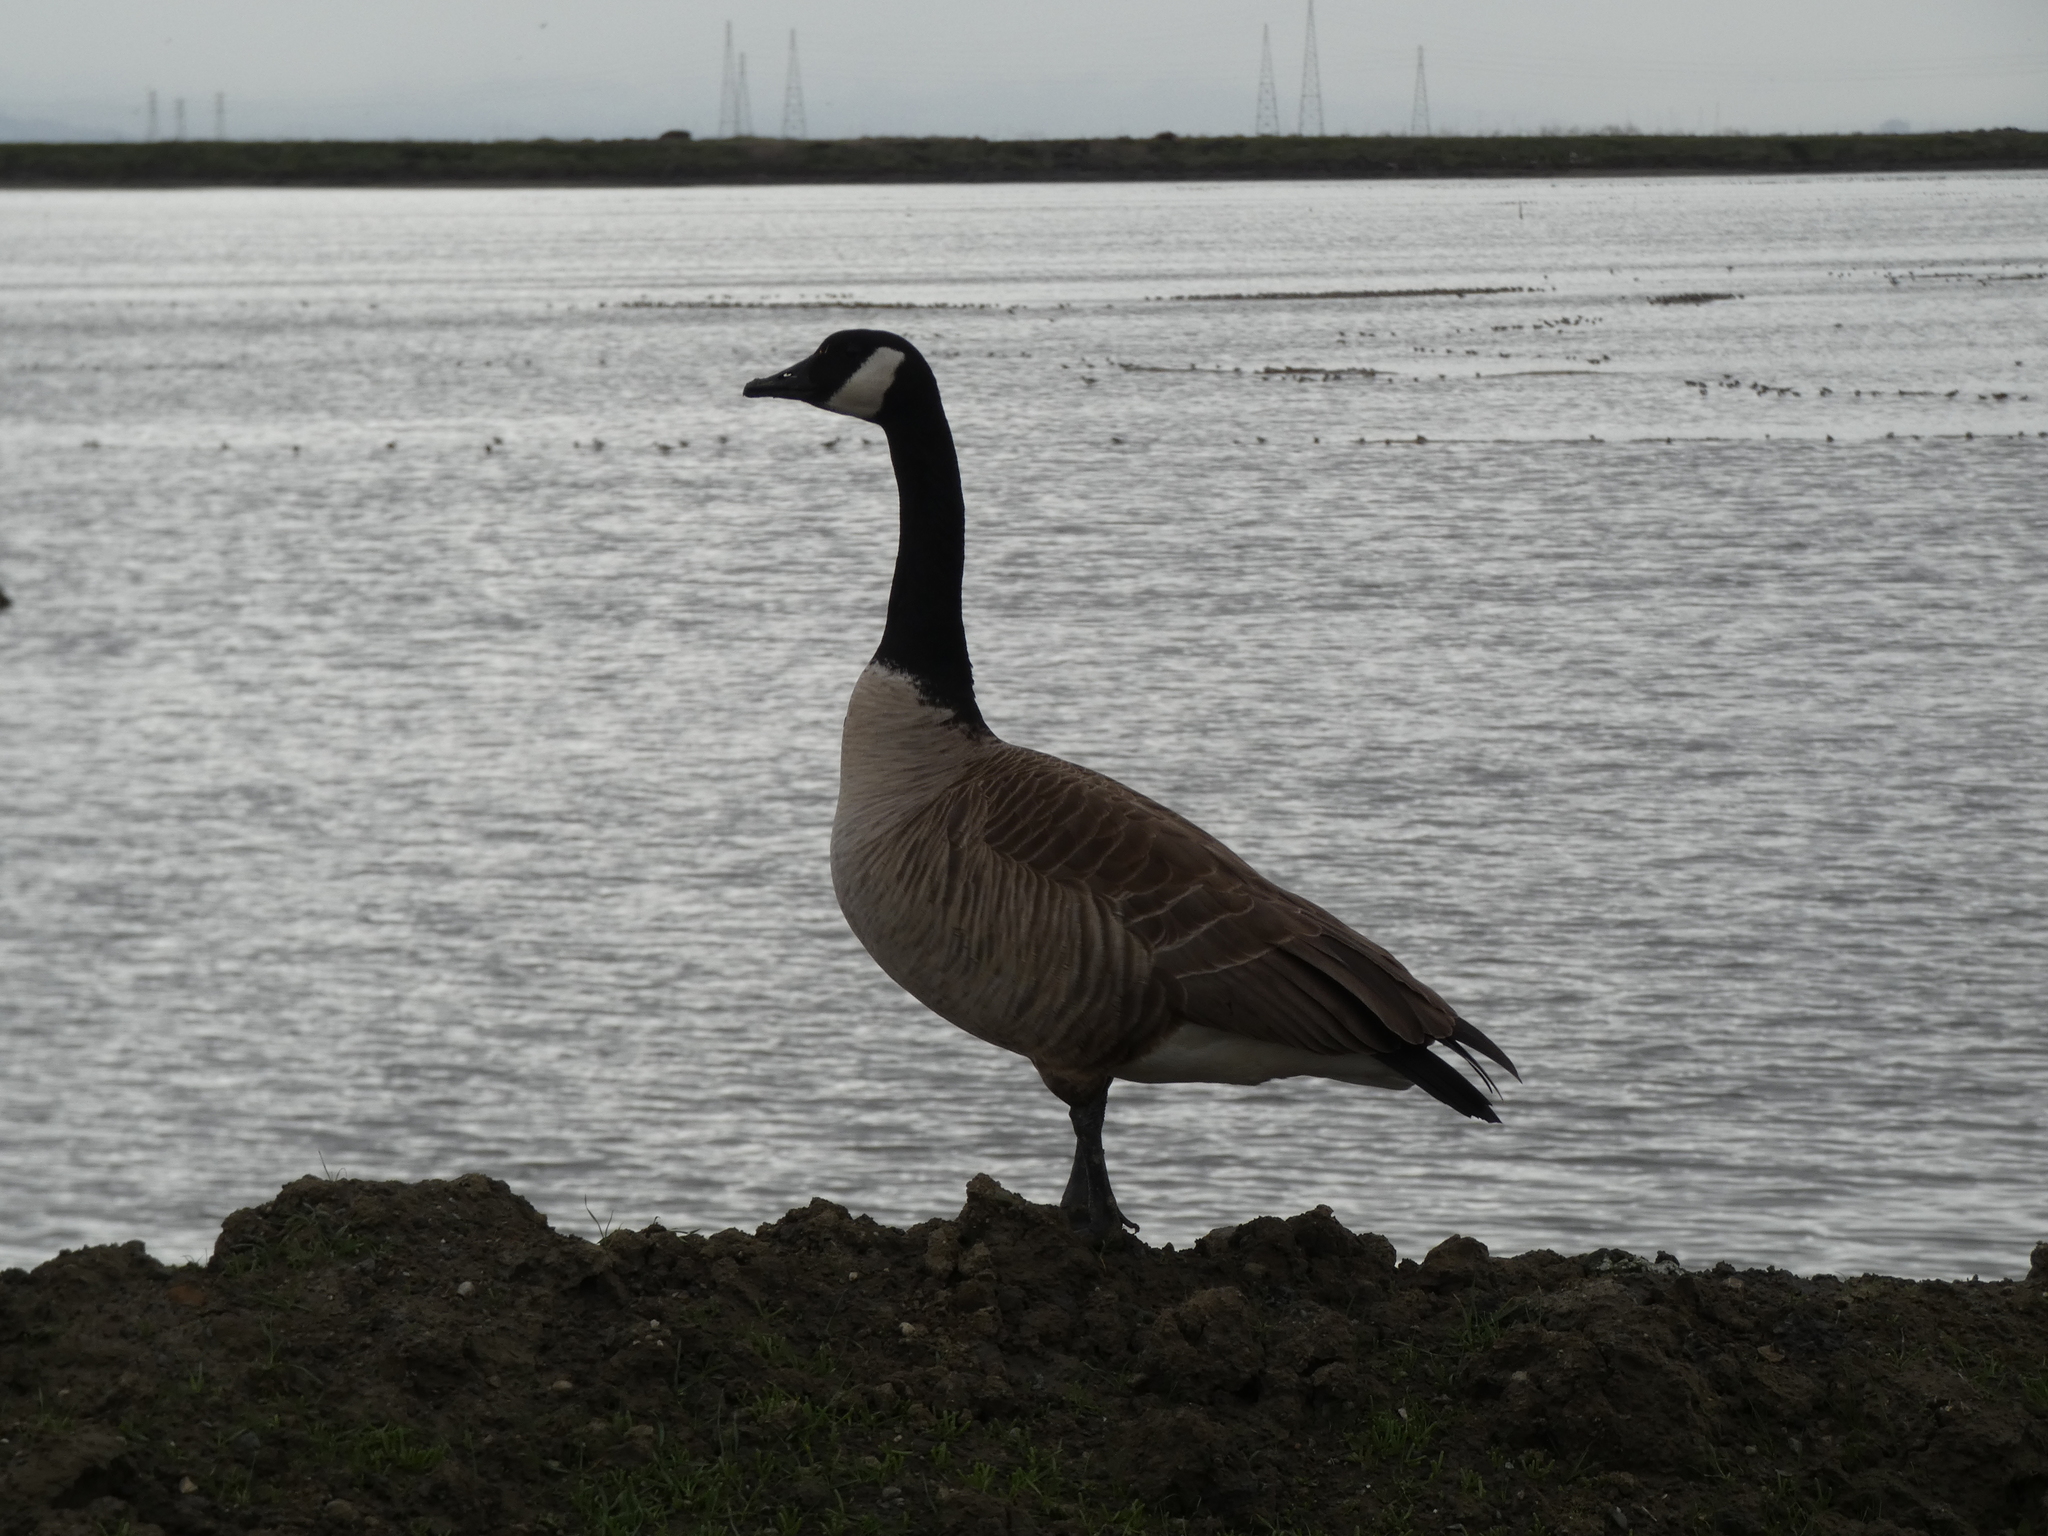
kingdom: Animalia
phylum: Chordata
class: Aves
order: Anseriformes
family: Anatidae
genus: Branta
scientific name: Branta canadensis
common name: Canada goose
